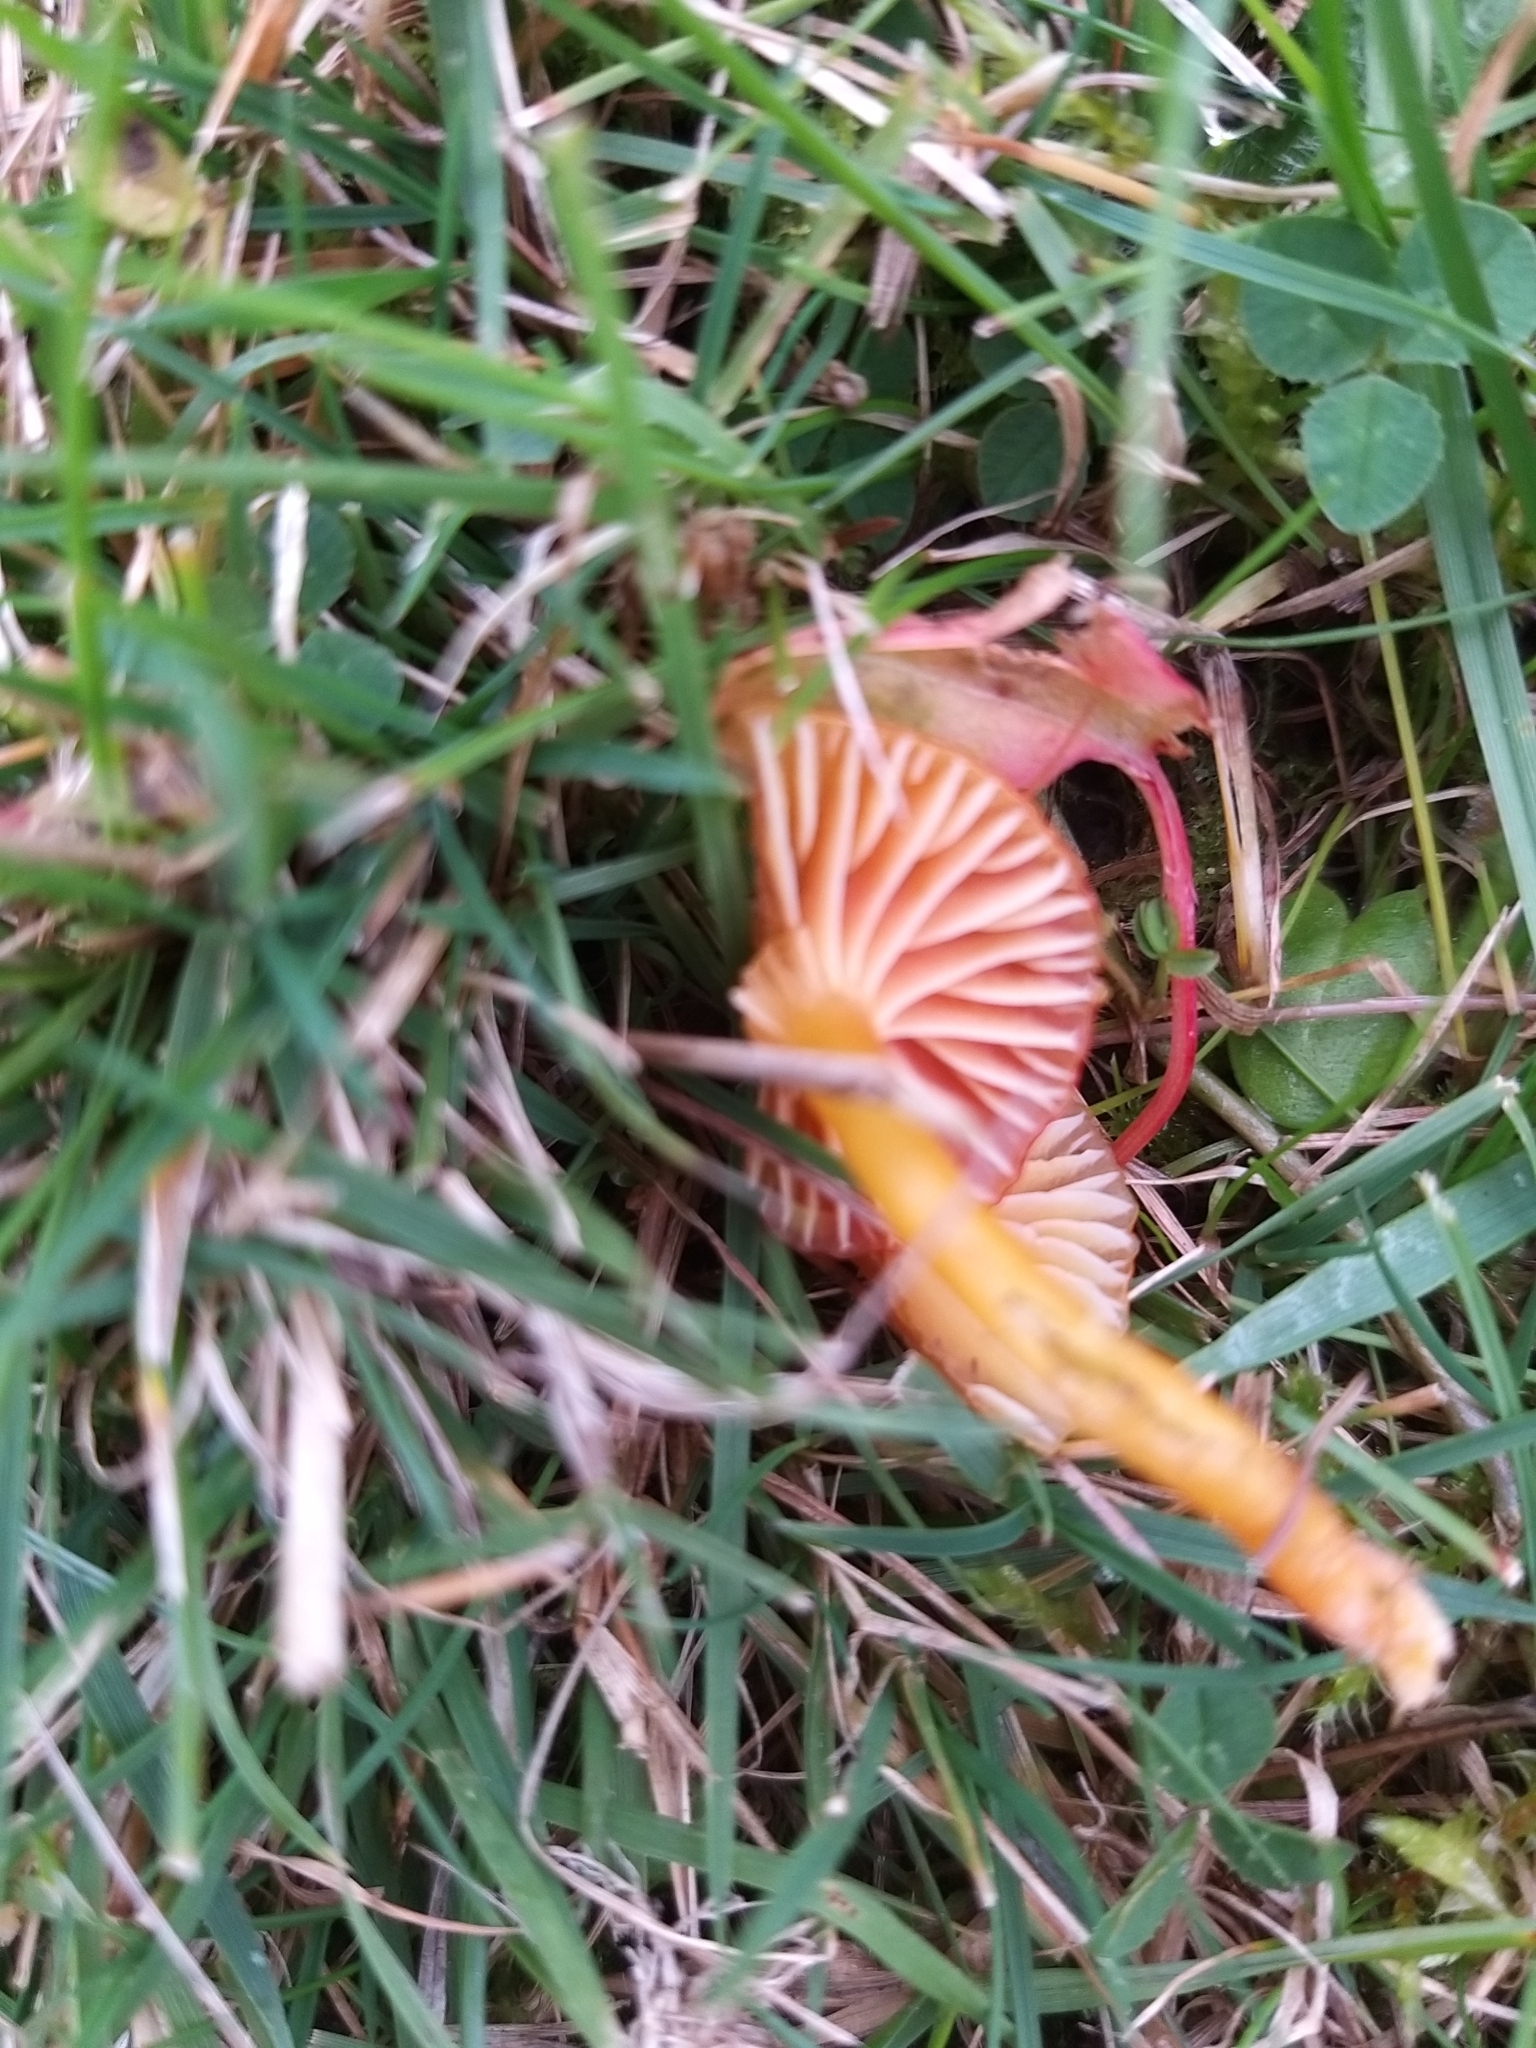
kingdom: Fungi
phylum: Basidiomycota
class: Agaricomycetes
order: Agaricales
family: Hygrophoraceae
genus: Hygrocybe
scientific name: Hygrocybe insipida
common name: Spangle waxcap
